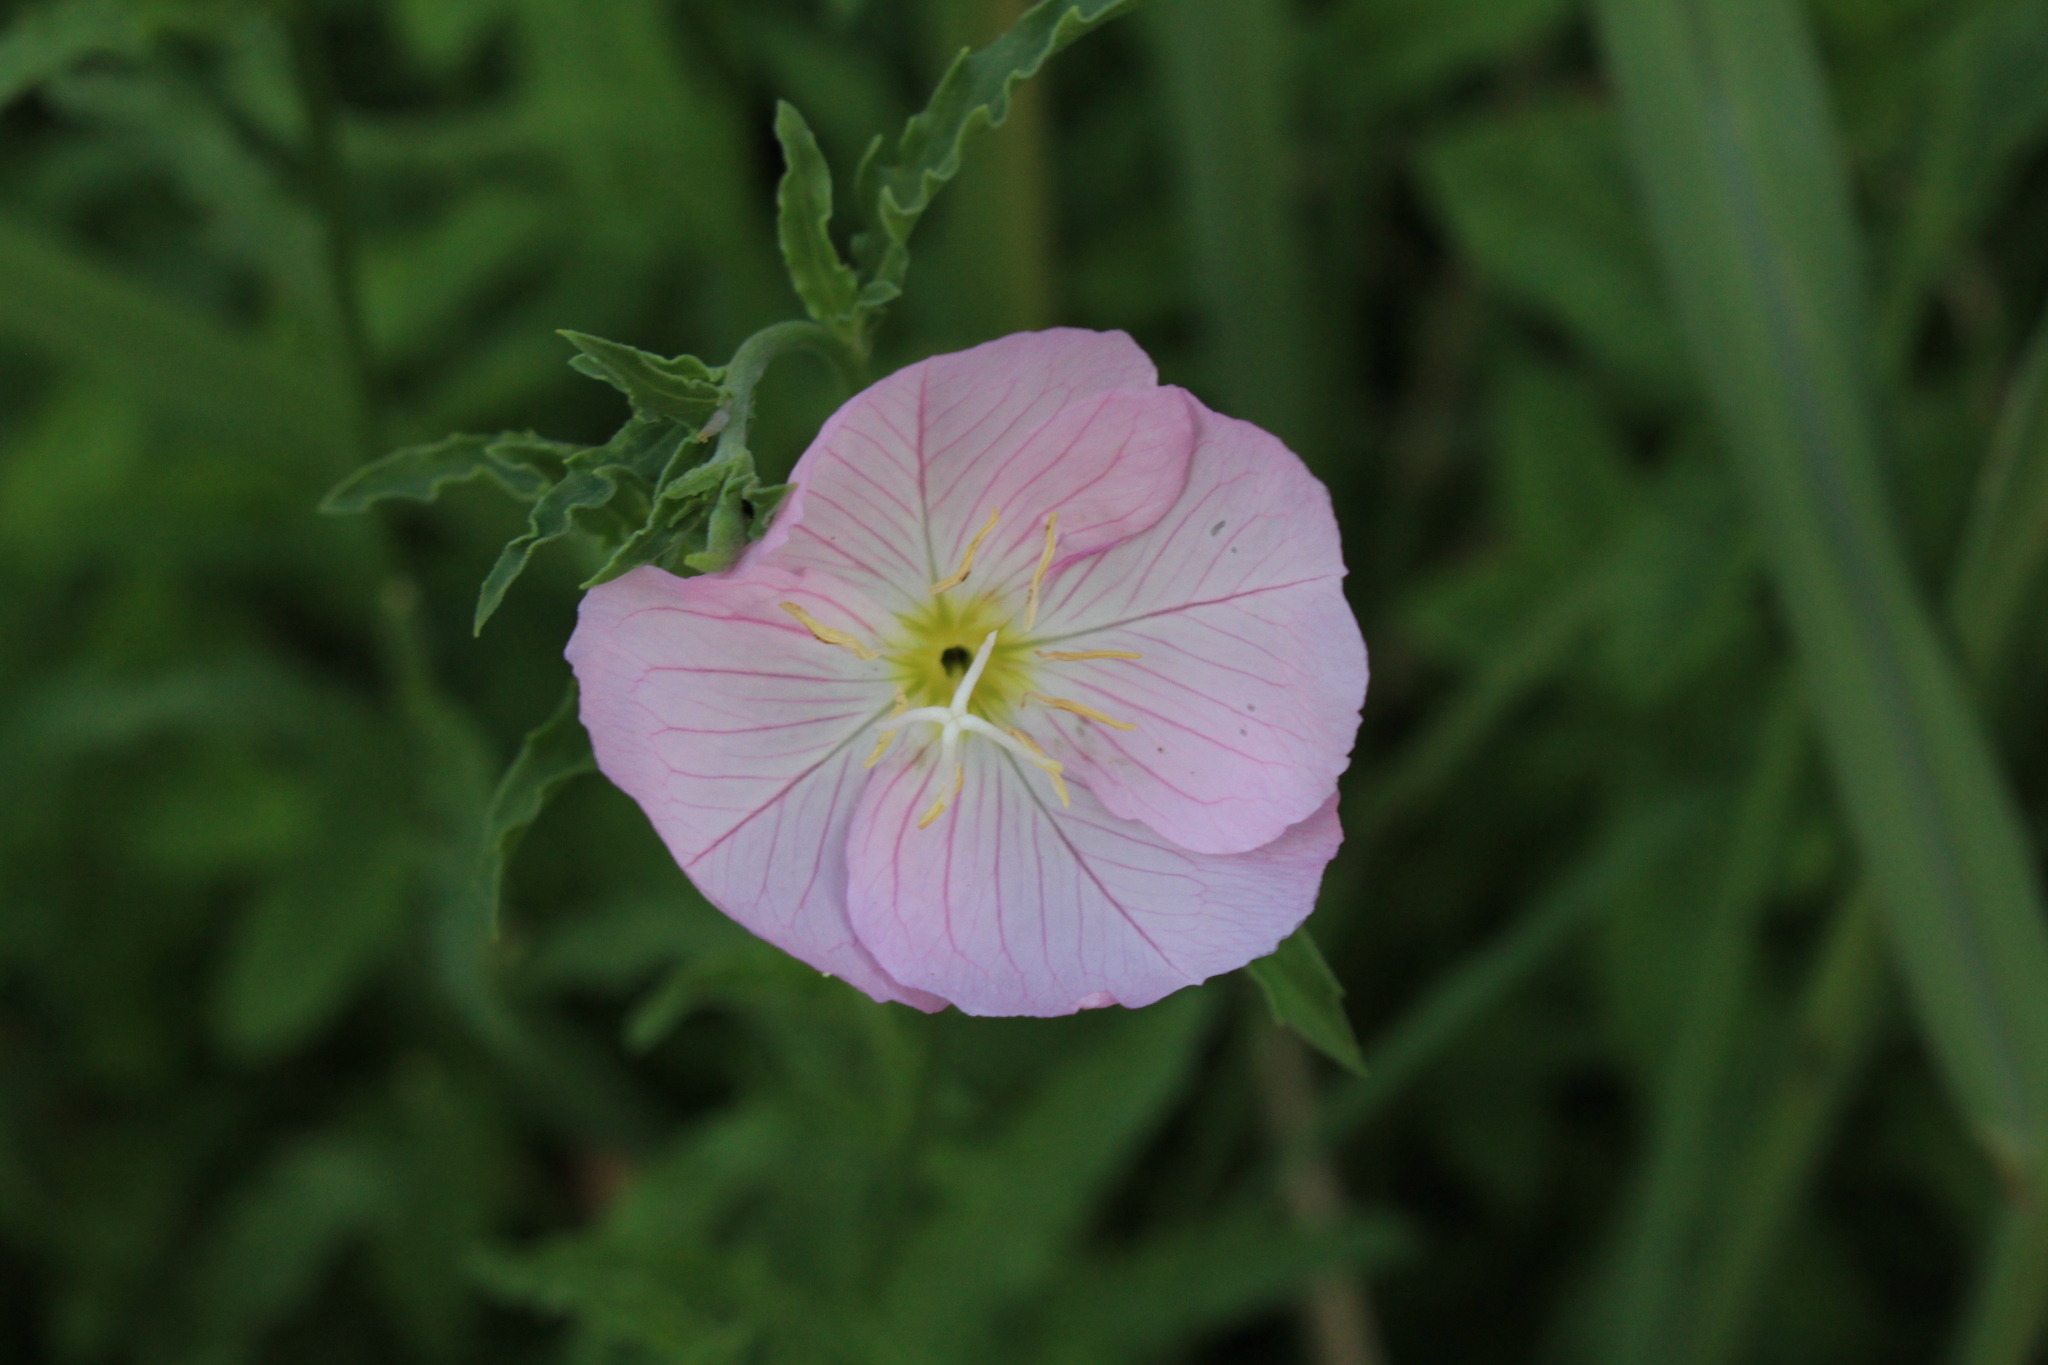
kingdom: Plantae
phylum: Tracheophyta
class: Magnoliopsida
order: Myrtales
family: Onagraceae
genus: Oenothera
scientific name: Oenothera speciosa
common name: White evening-primrose
